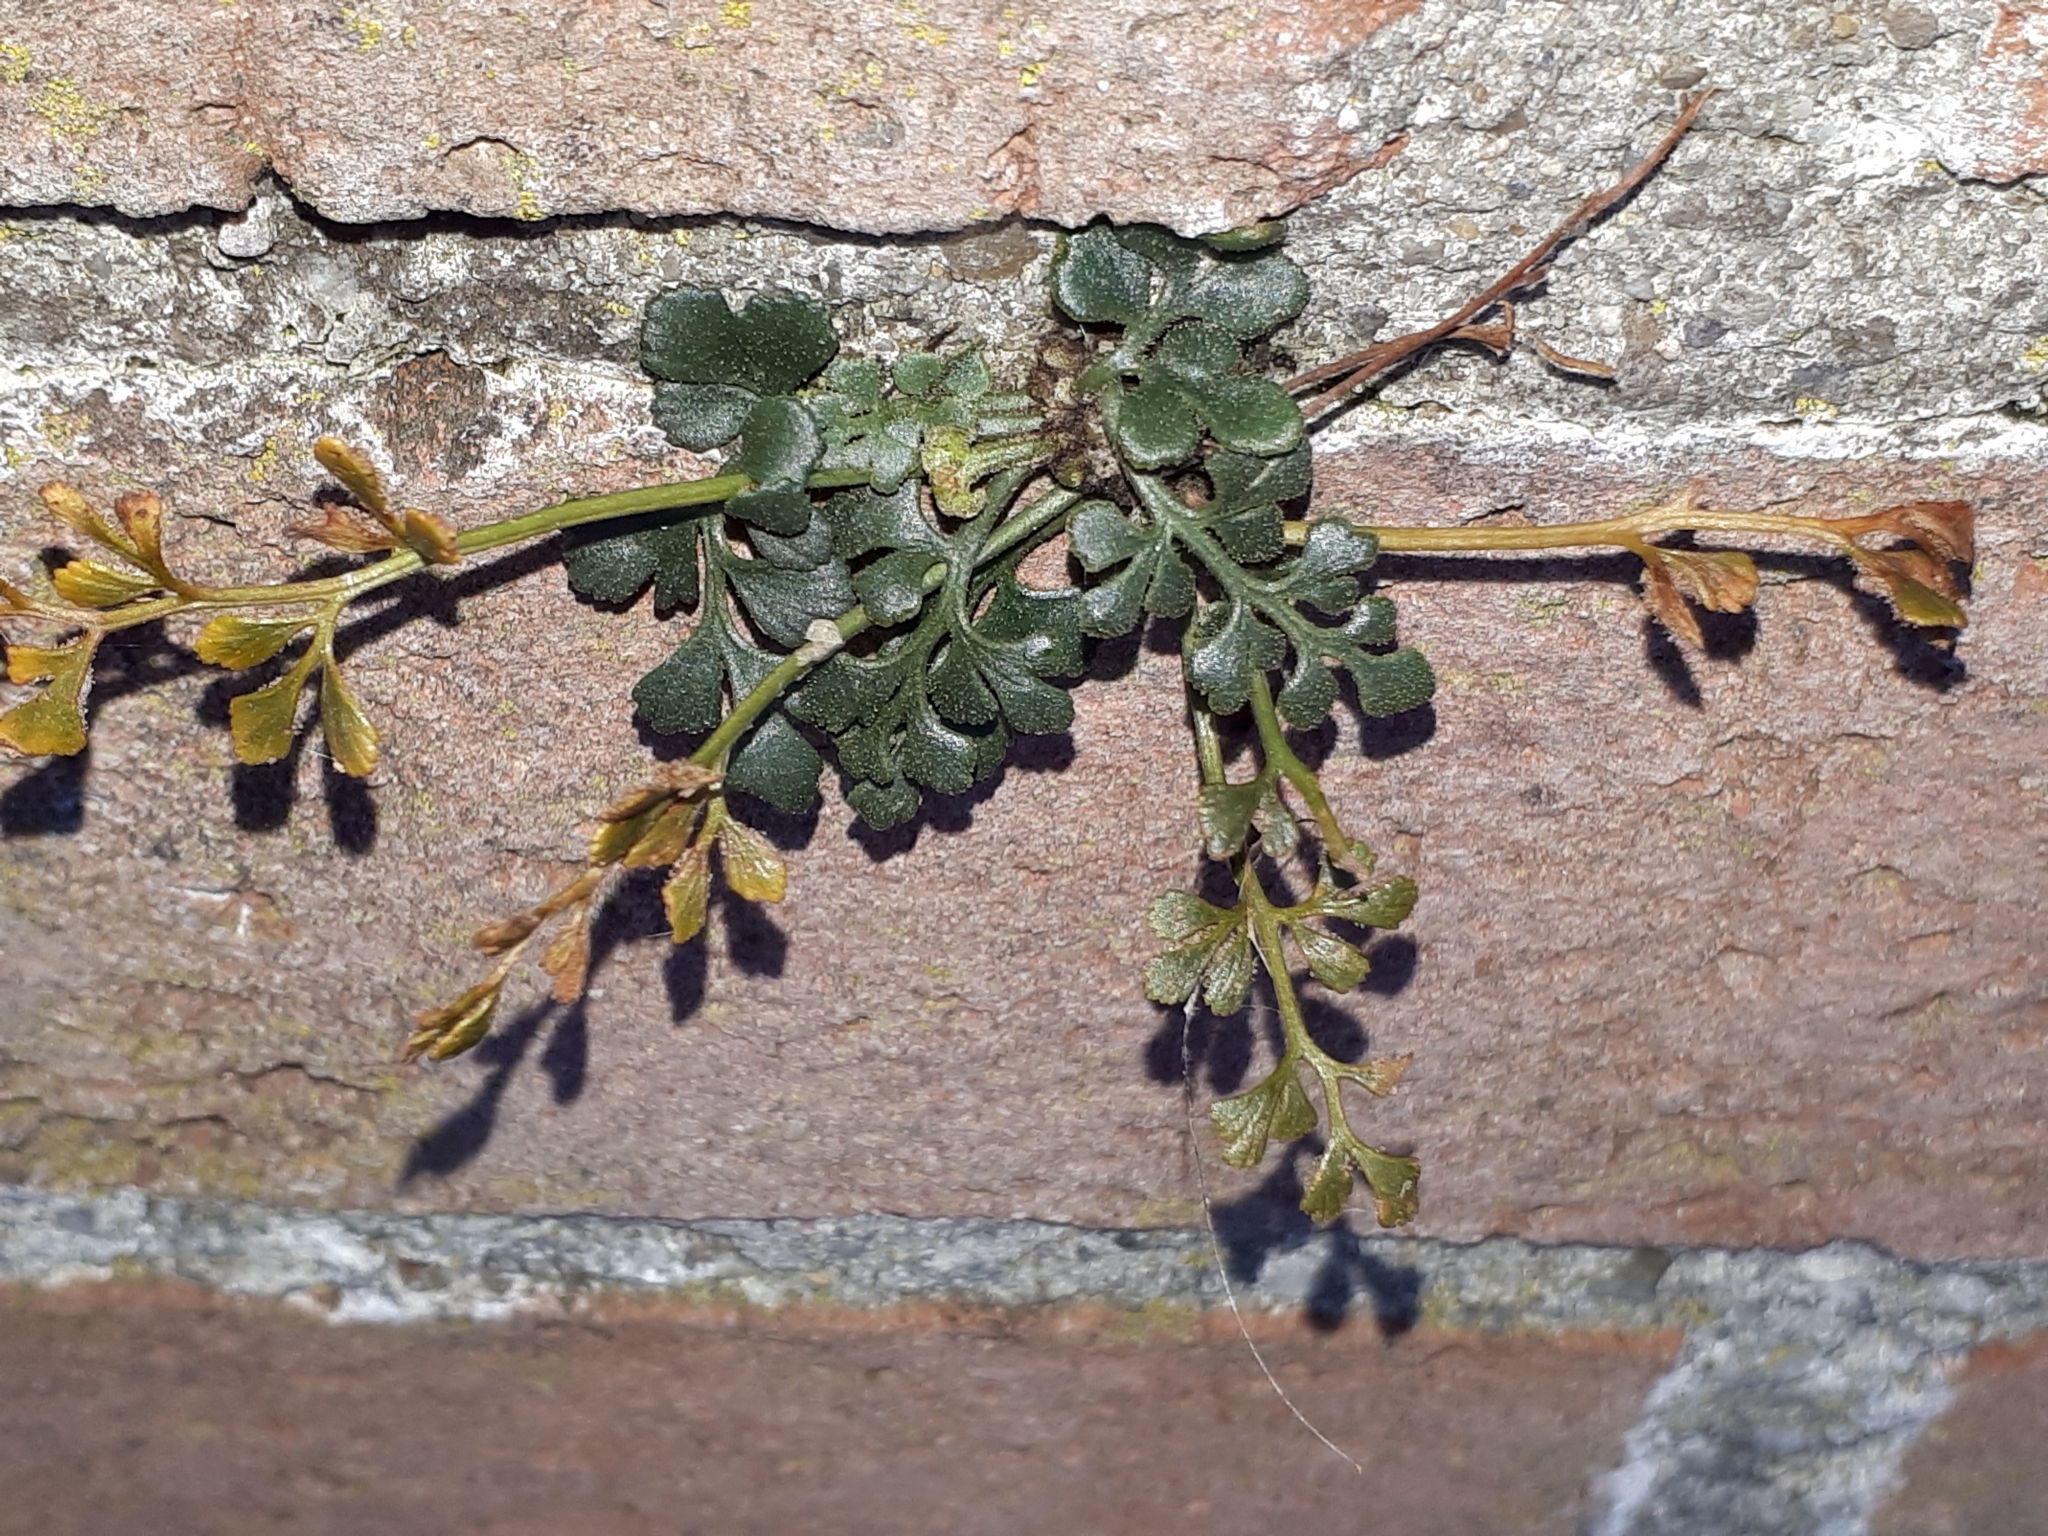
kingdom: Plantae
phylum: Tracheophyta
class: Polypodiopsida
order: Polypodiales
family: Aspleniaceae
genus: Asplenium
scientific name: Asplenium ruta-muraria
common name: Wall-rue
